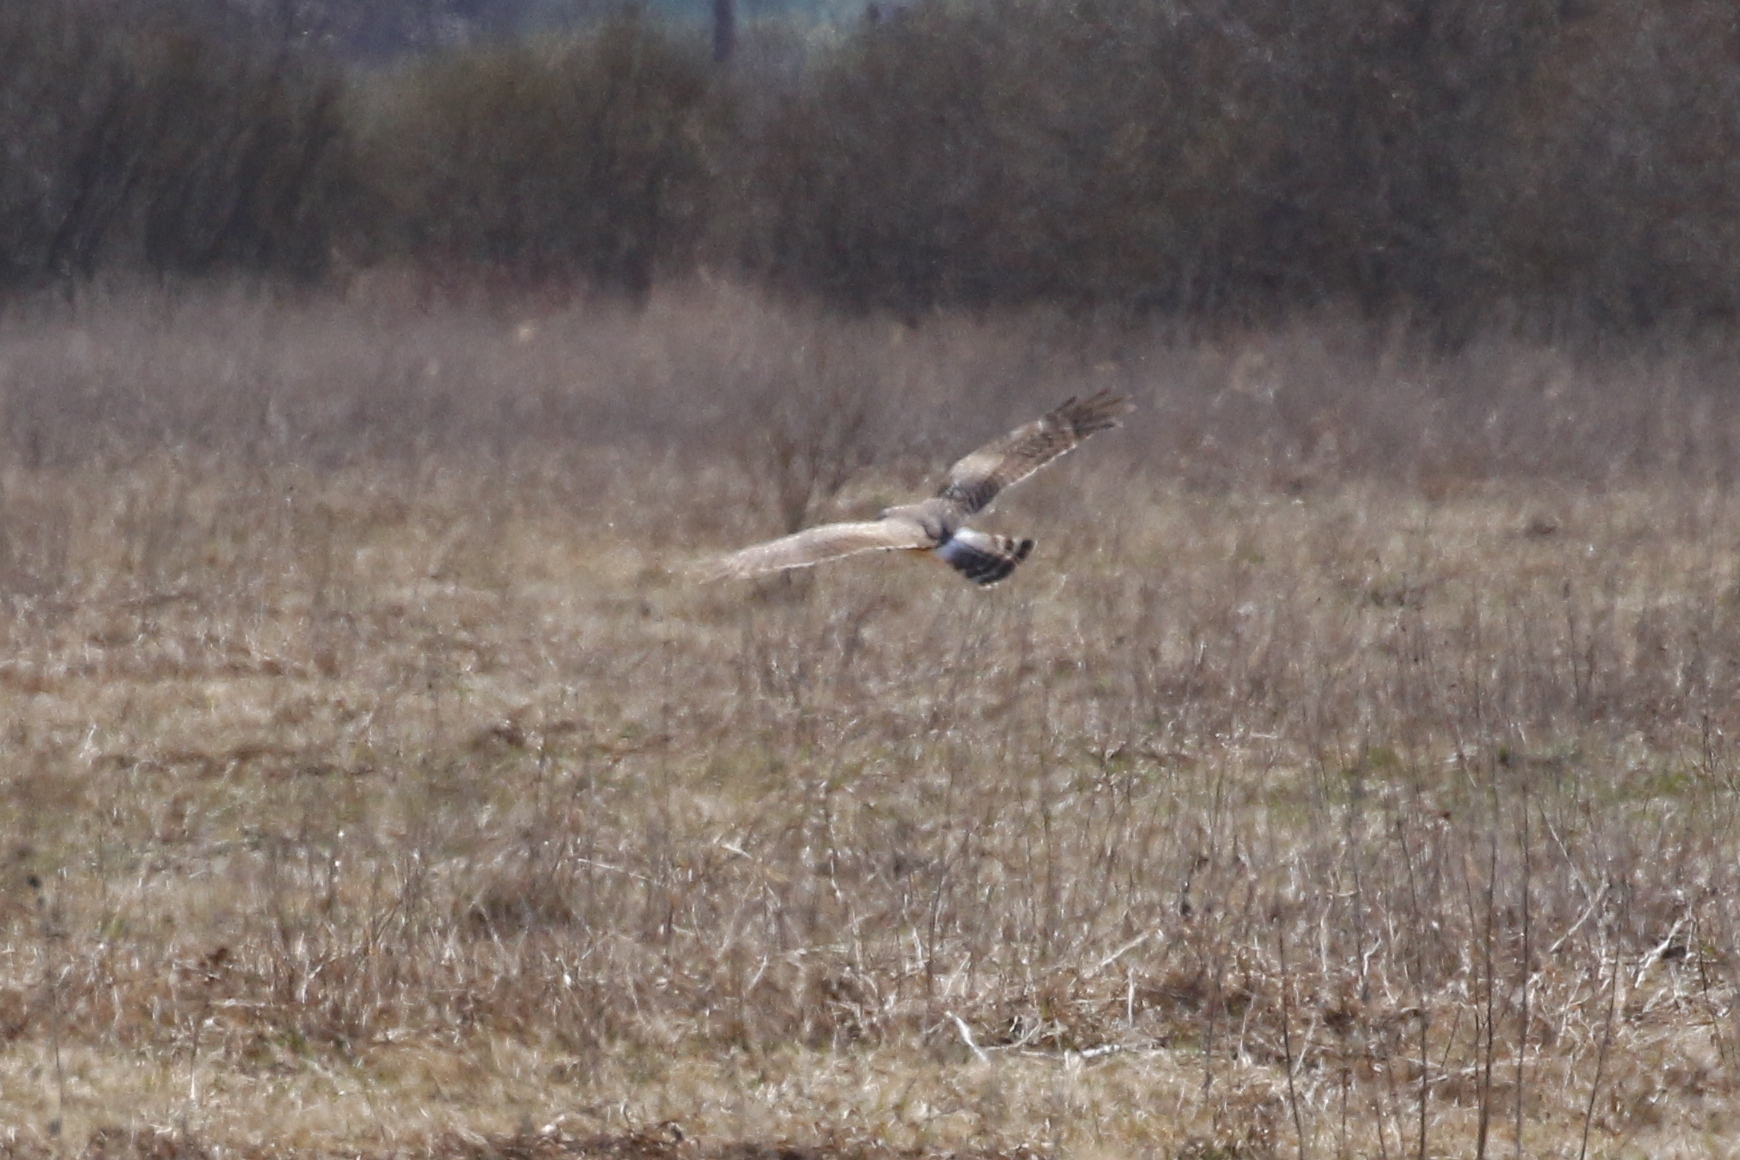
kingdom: Animalia
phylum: Chordata
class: Aves
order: Accipitriformes
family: Accipitridae
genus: Circus
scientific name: Circus cyaneus
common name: Hen harrier
